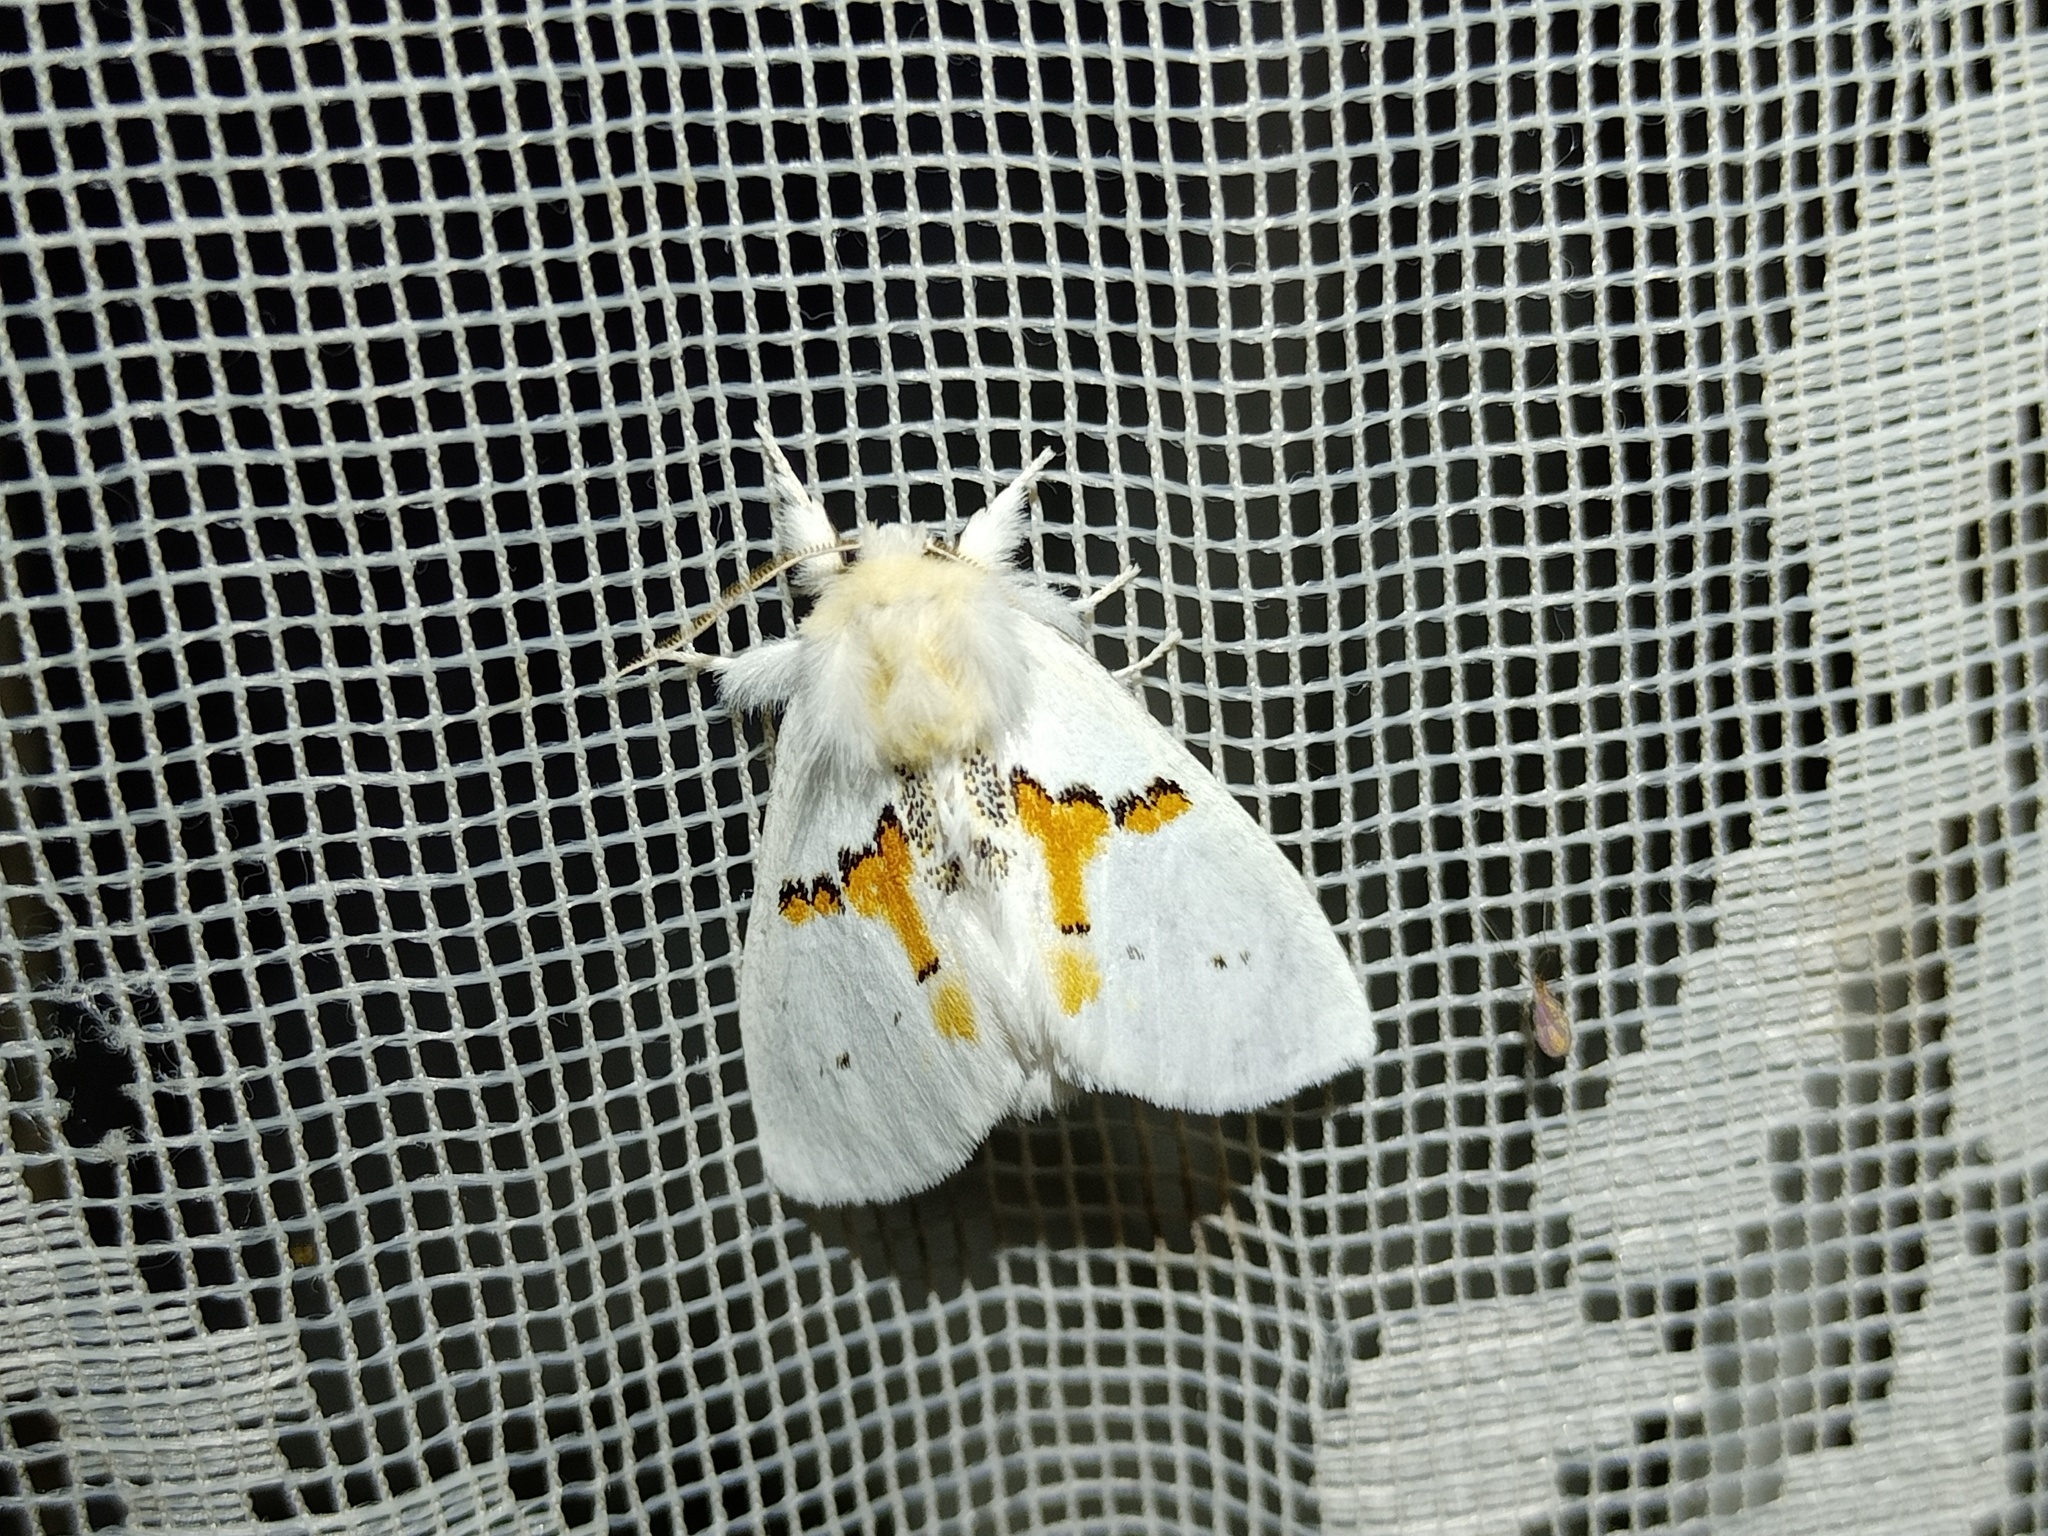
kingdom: Animalia
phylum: Arthropoda
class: Insecta
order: Lepidoptera
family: Notodontidae
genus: Leucodonta
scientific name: Leucodonta bicoloria
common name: White prominent
